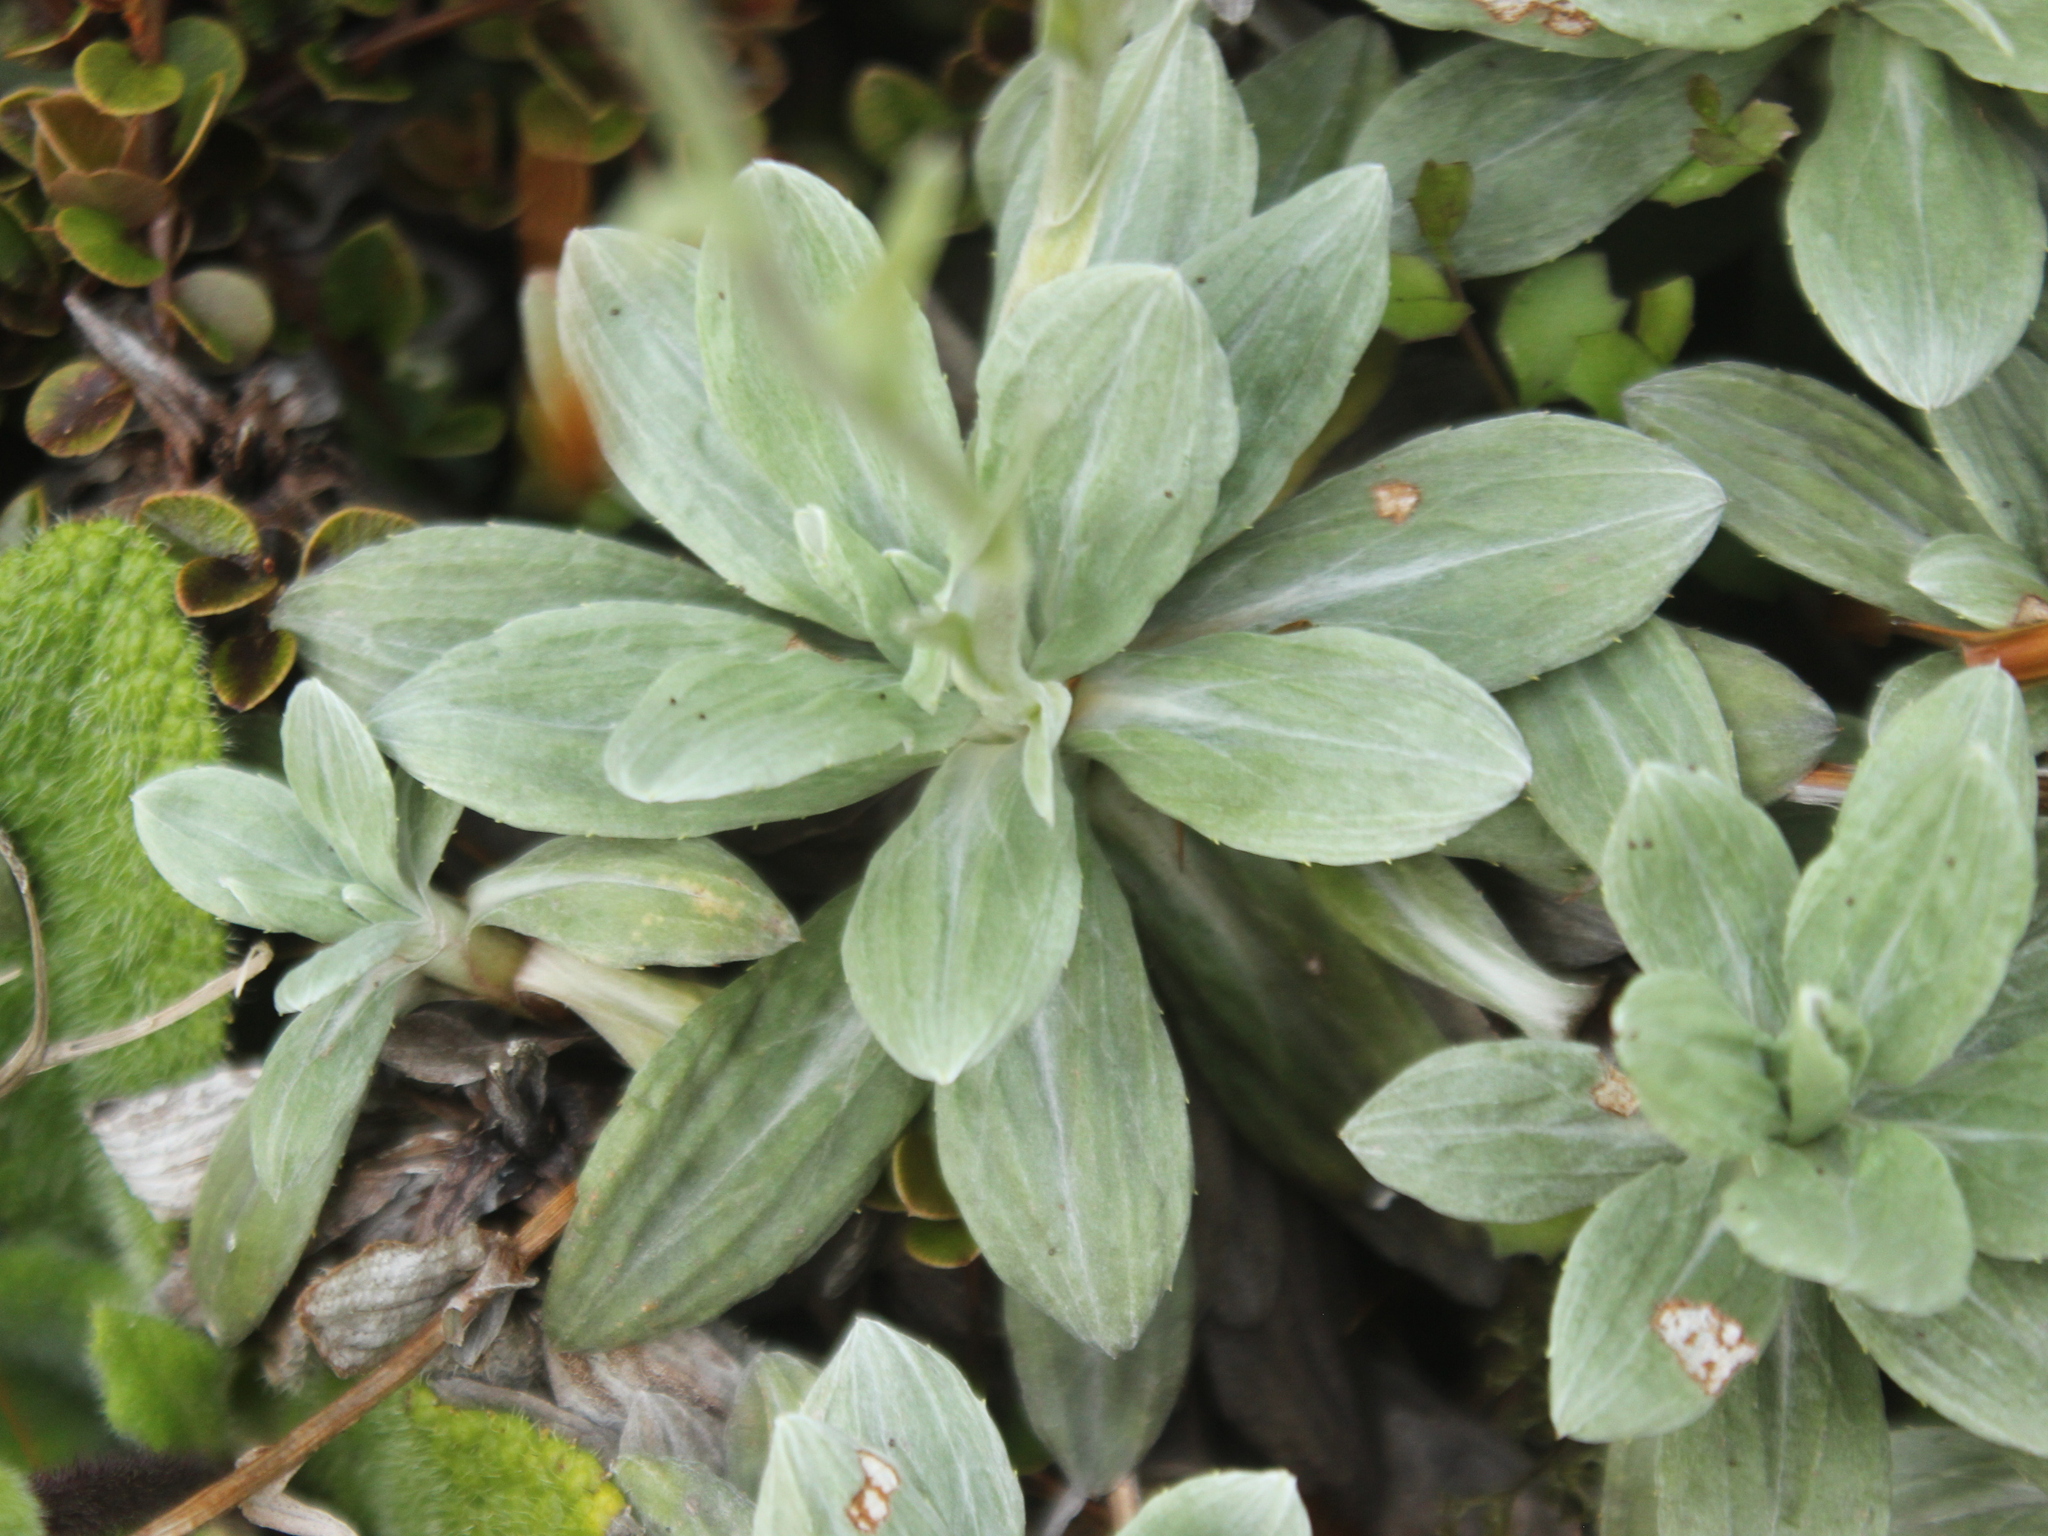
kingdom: Plantae
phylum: Tracheophyta
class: Magnoliopsida
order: Asterales
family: Asteraceae
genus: Celmisia
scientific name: Celmisia incana
